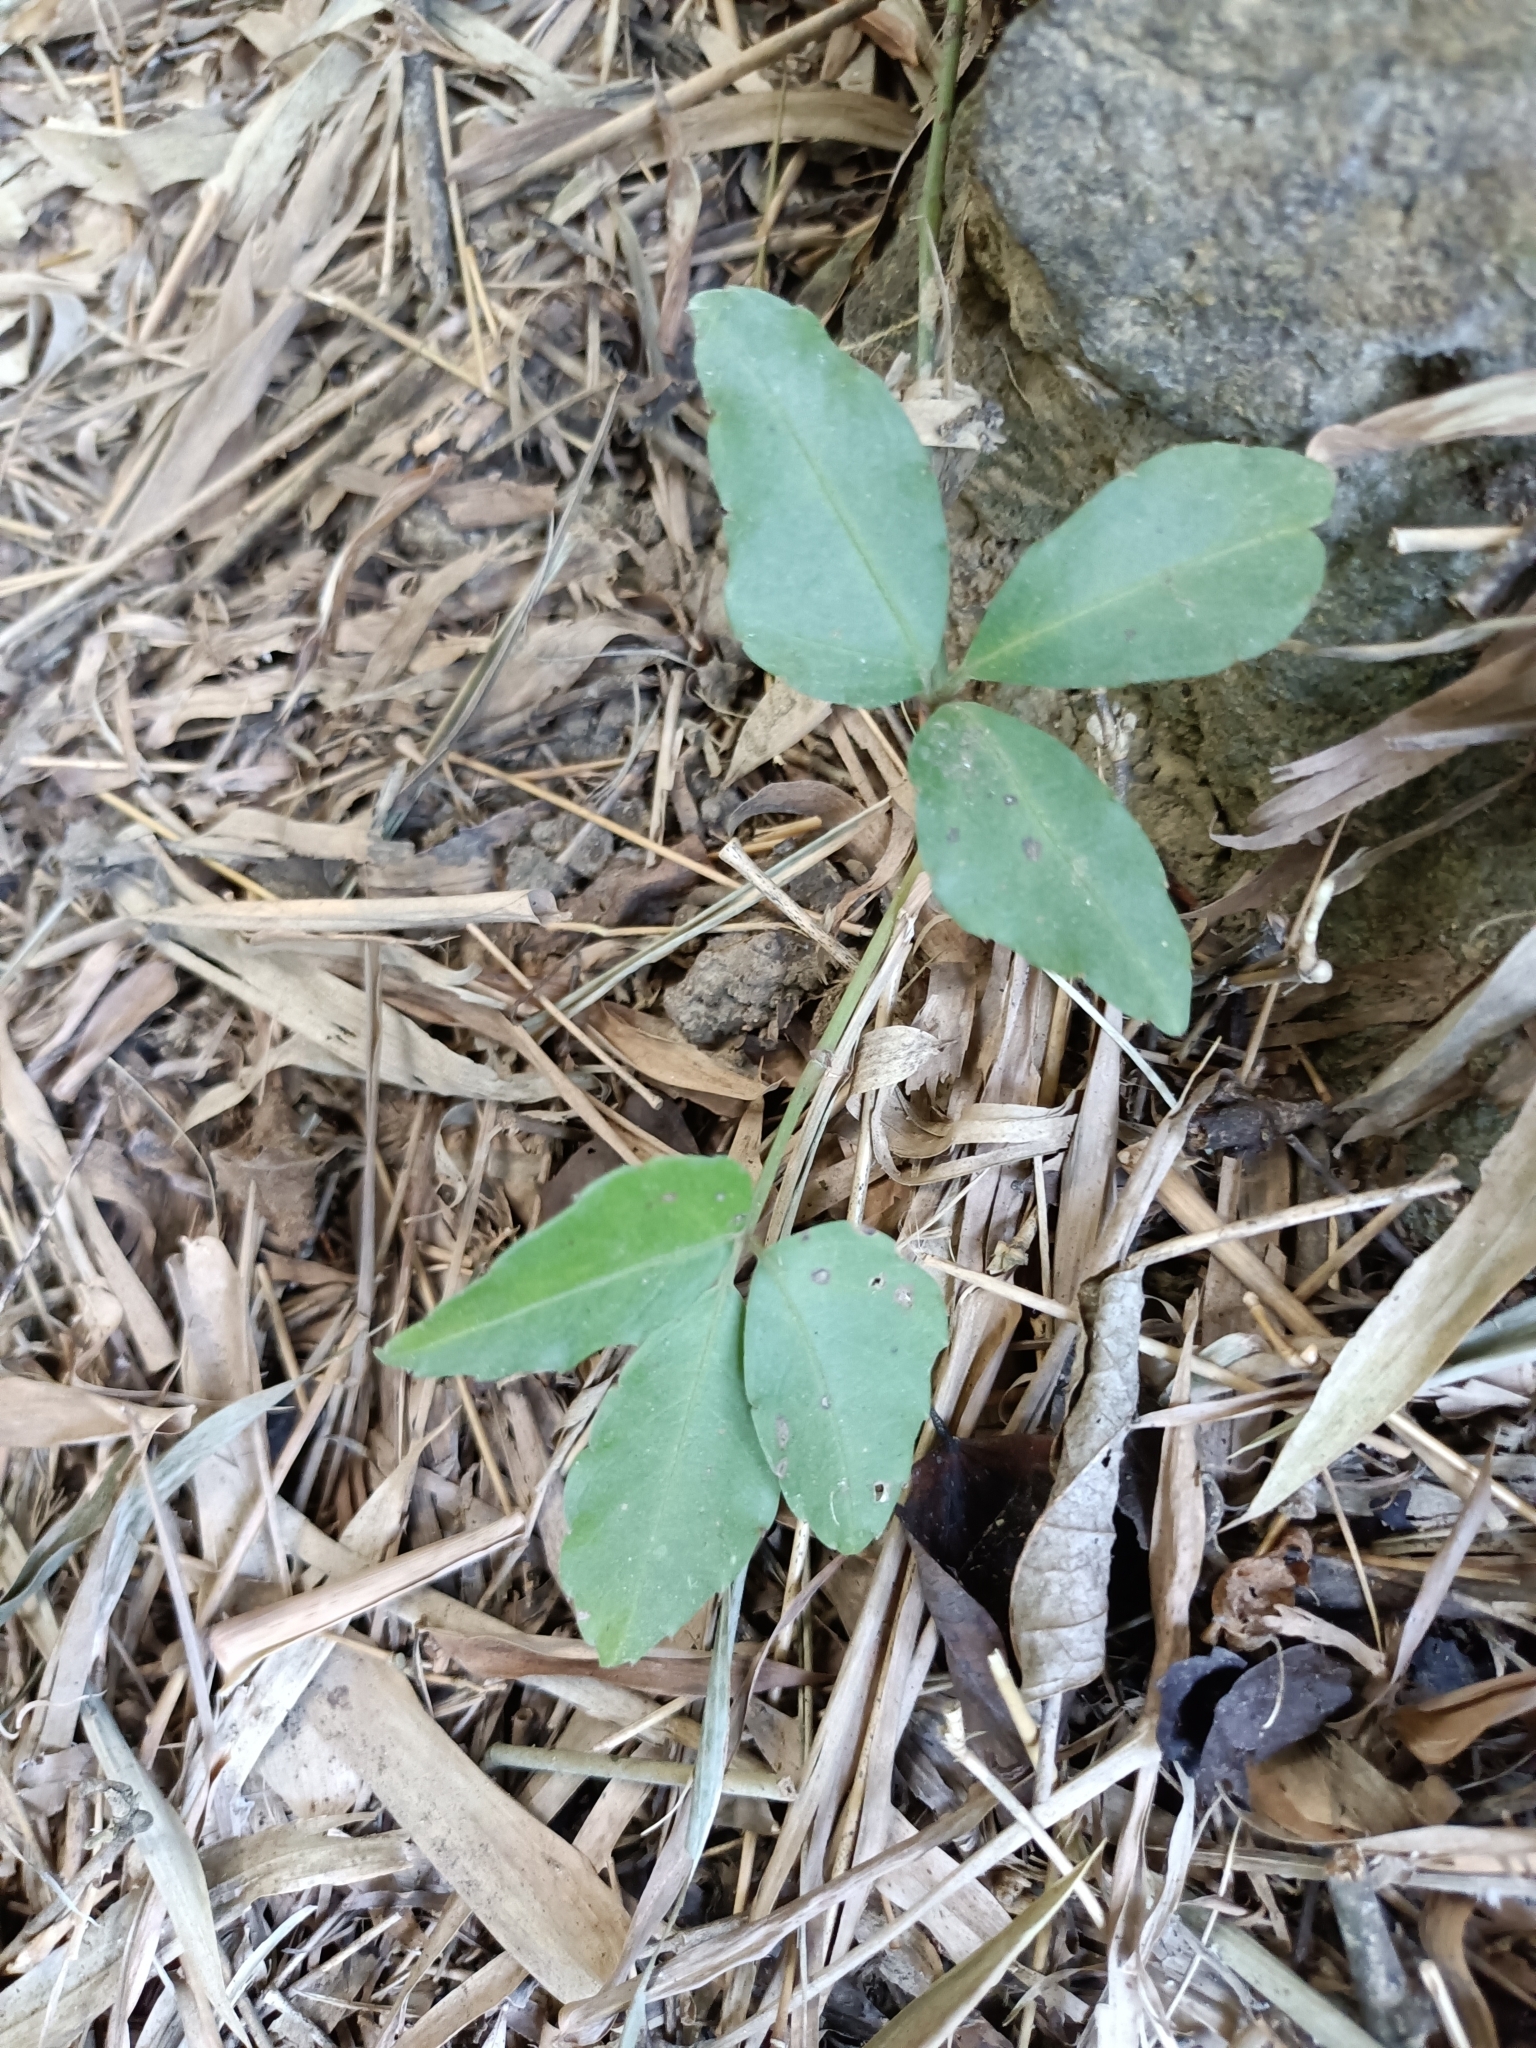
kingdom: Plantae
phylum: Tracheophyta
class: Magnoliopsida
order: Vitales
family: Vitaceae
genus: Tetrastigma
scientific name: Tetrastigma formosanum
